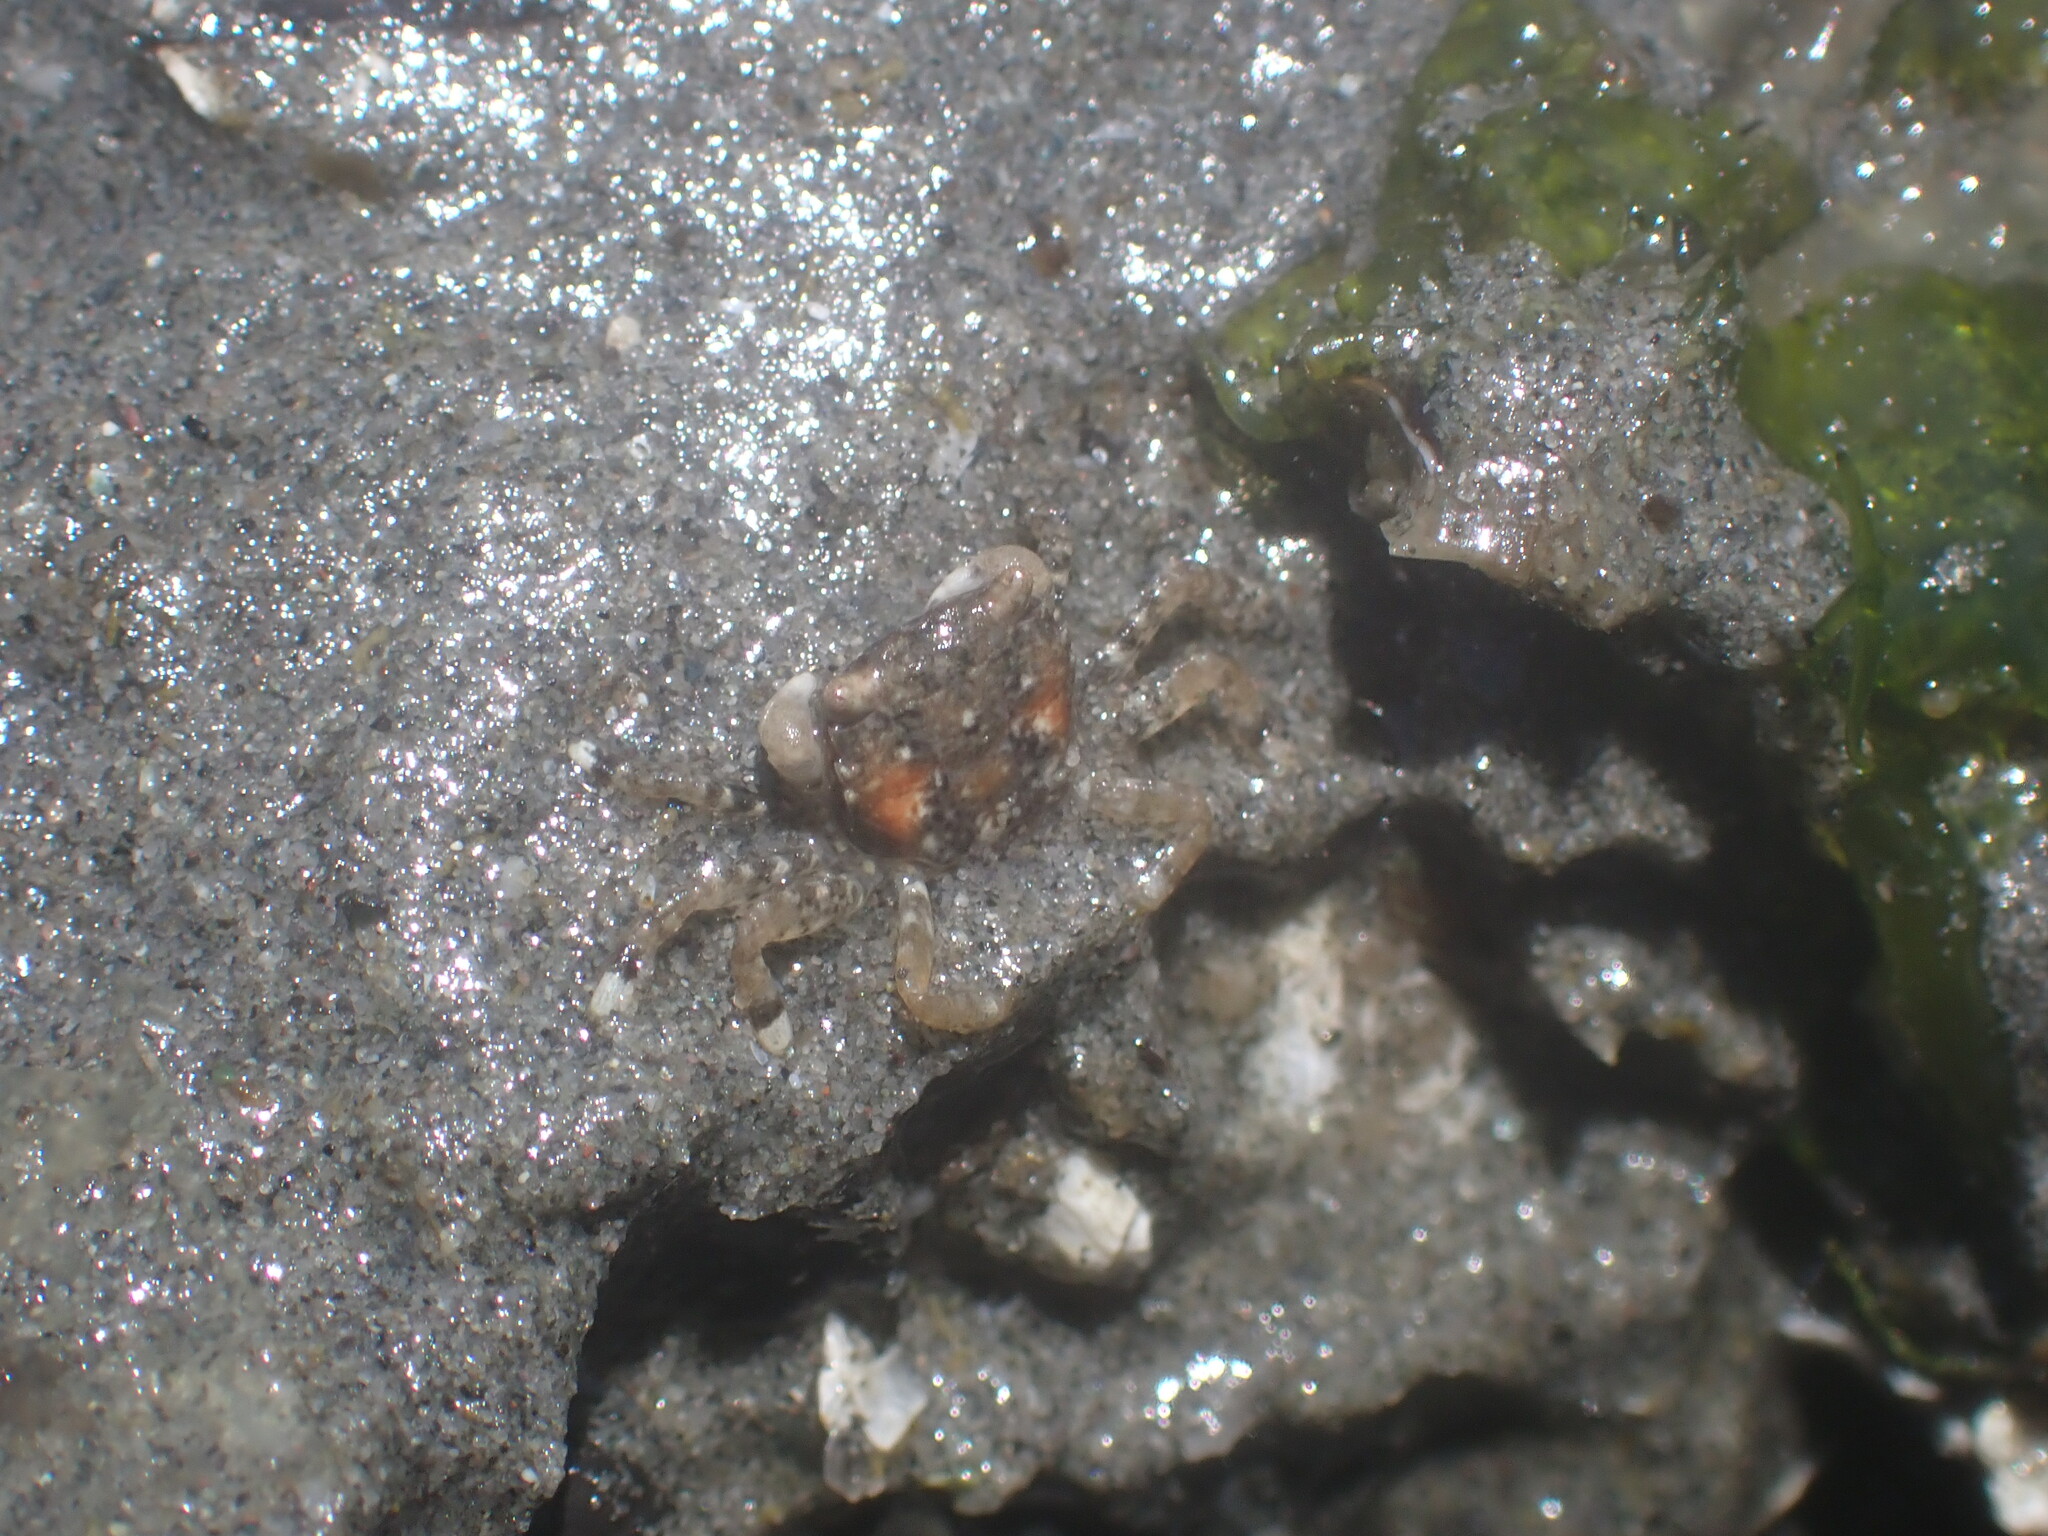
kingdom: Animalia
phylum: Arthropoda
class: Malacostraca
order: Decapoda
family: Varunidae
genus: Hemigrapsus
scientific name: Hemigrapsus oregonensis
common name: Yellow shore crab
